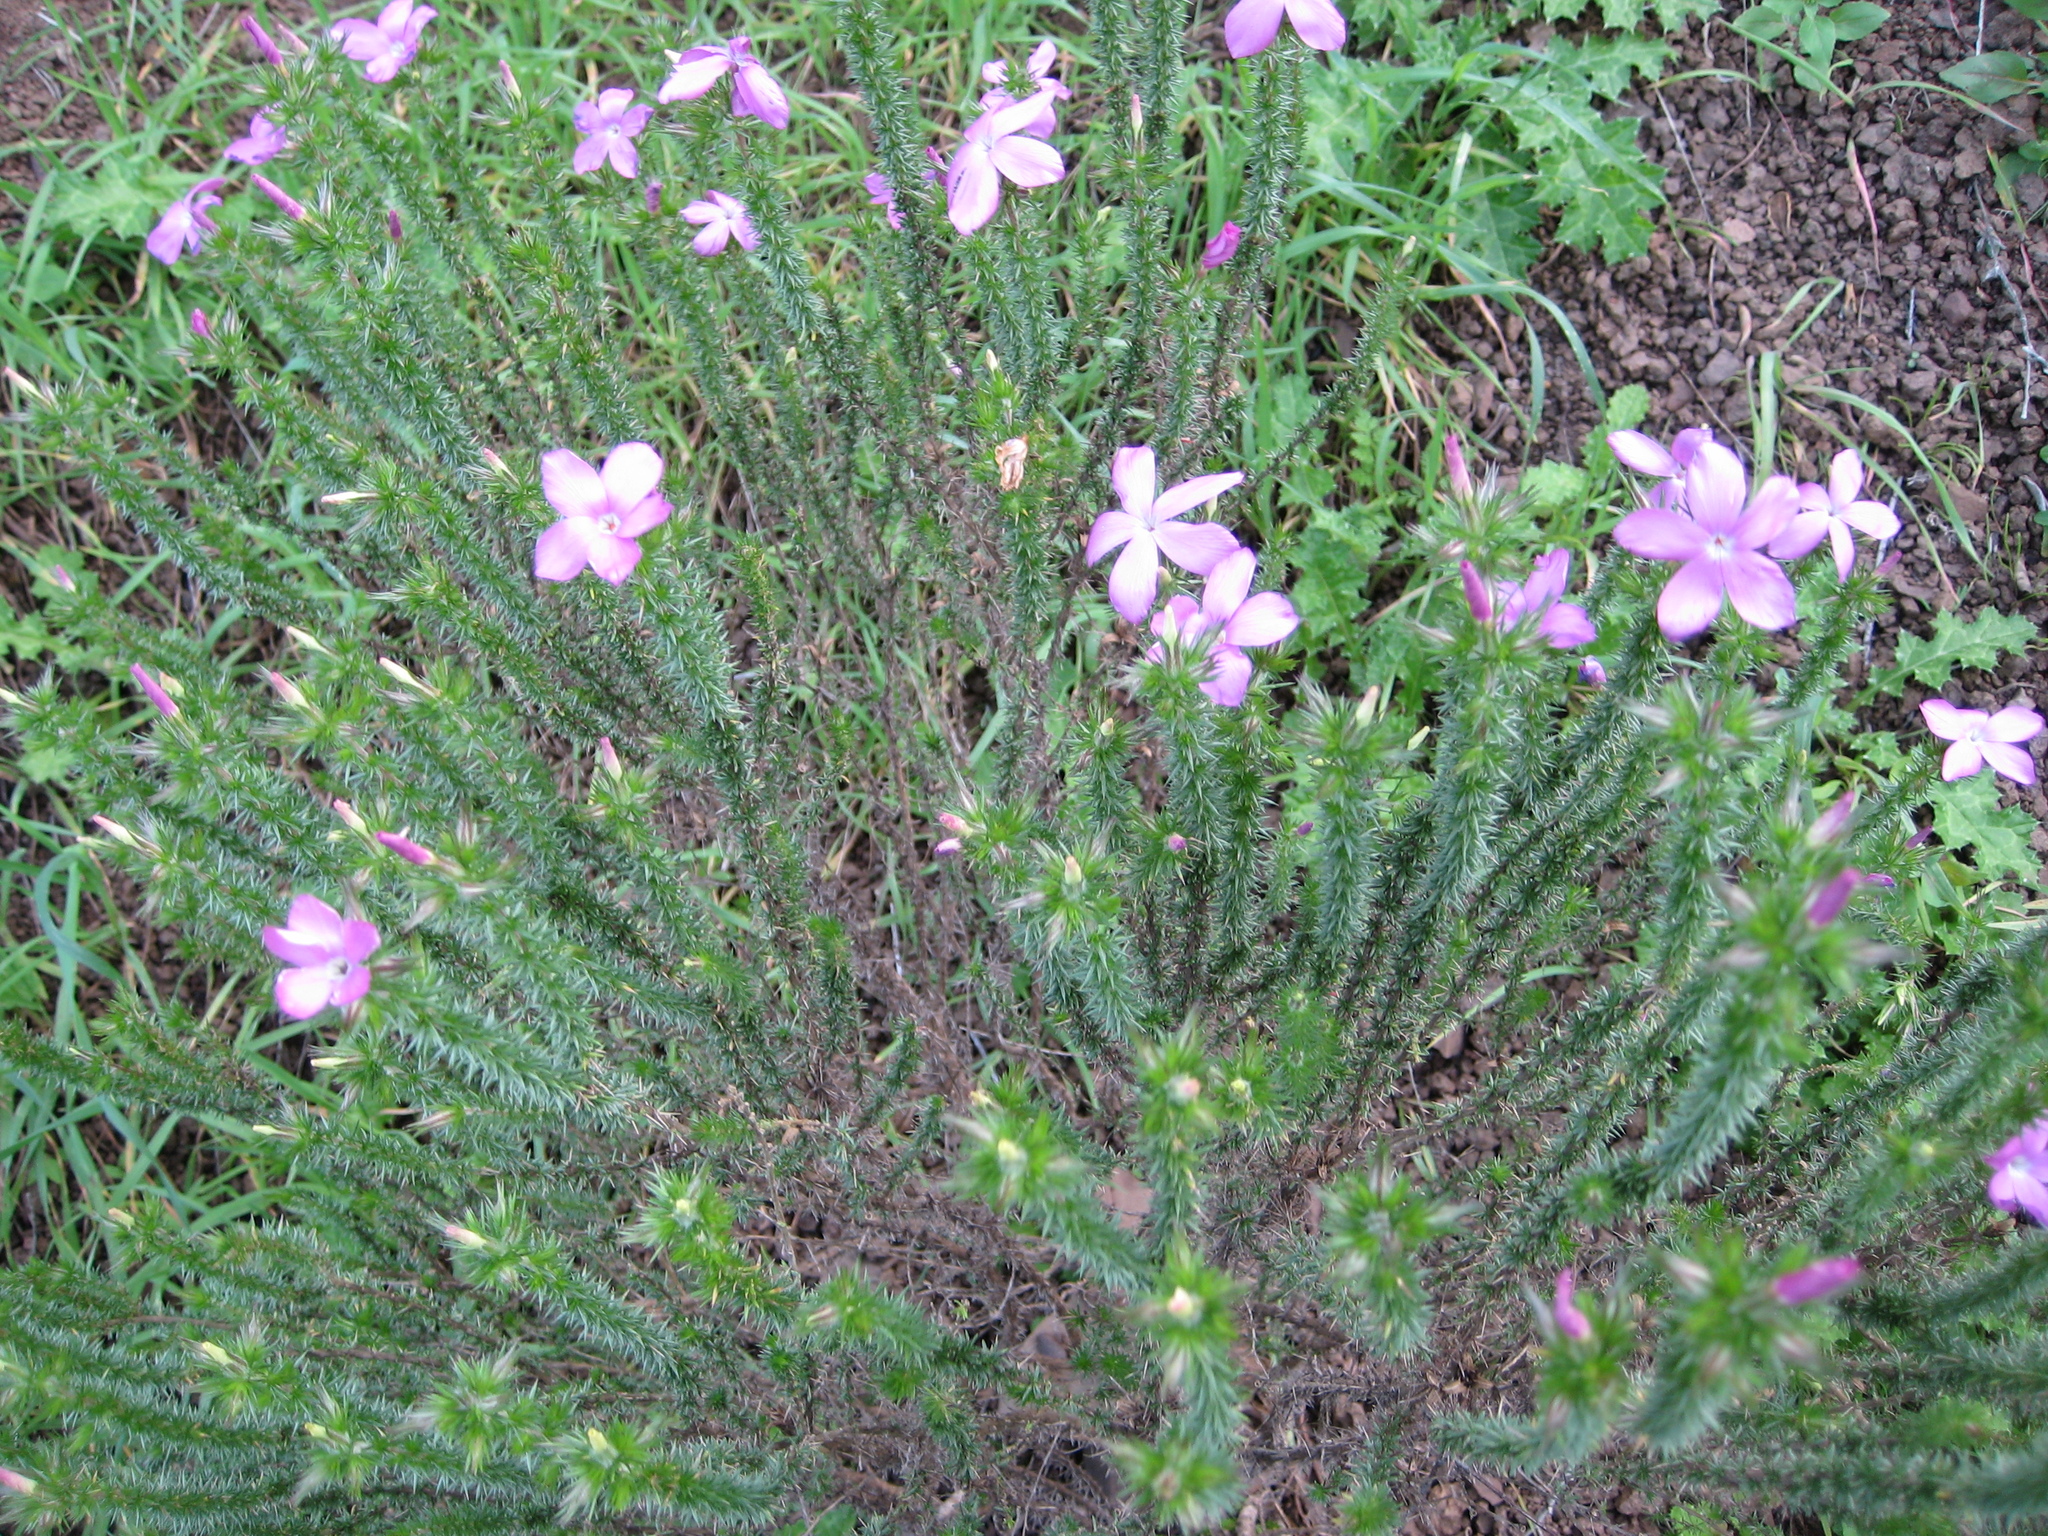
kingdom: Plantae
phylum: Tracheophyta
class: Magnoliopsida
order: Ericales
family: Polemoniaceae
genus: Linanthus
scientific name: Linanthus californicus
